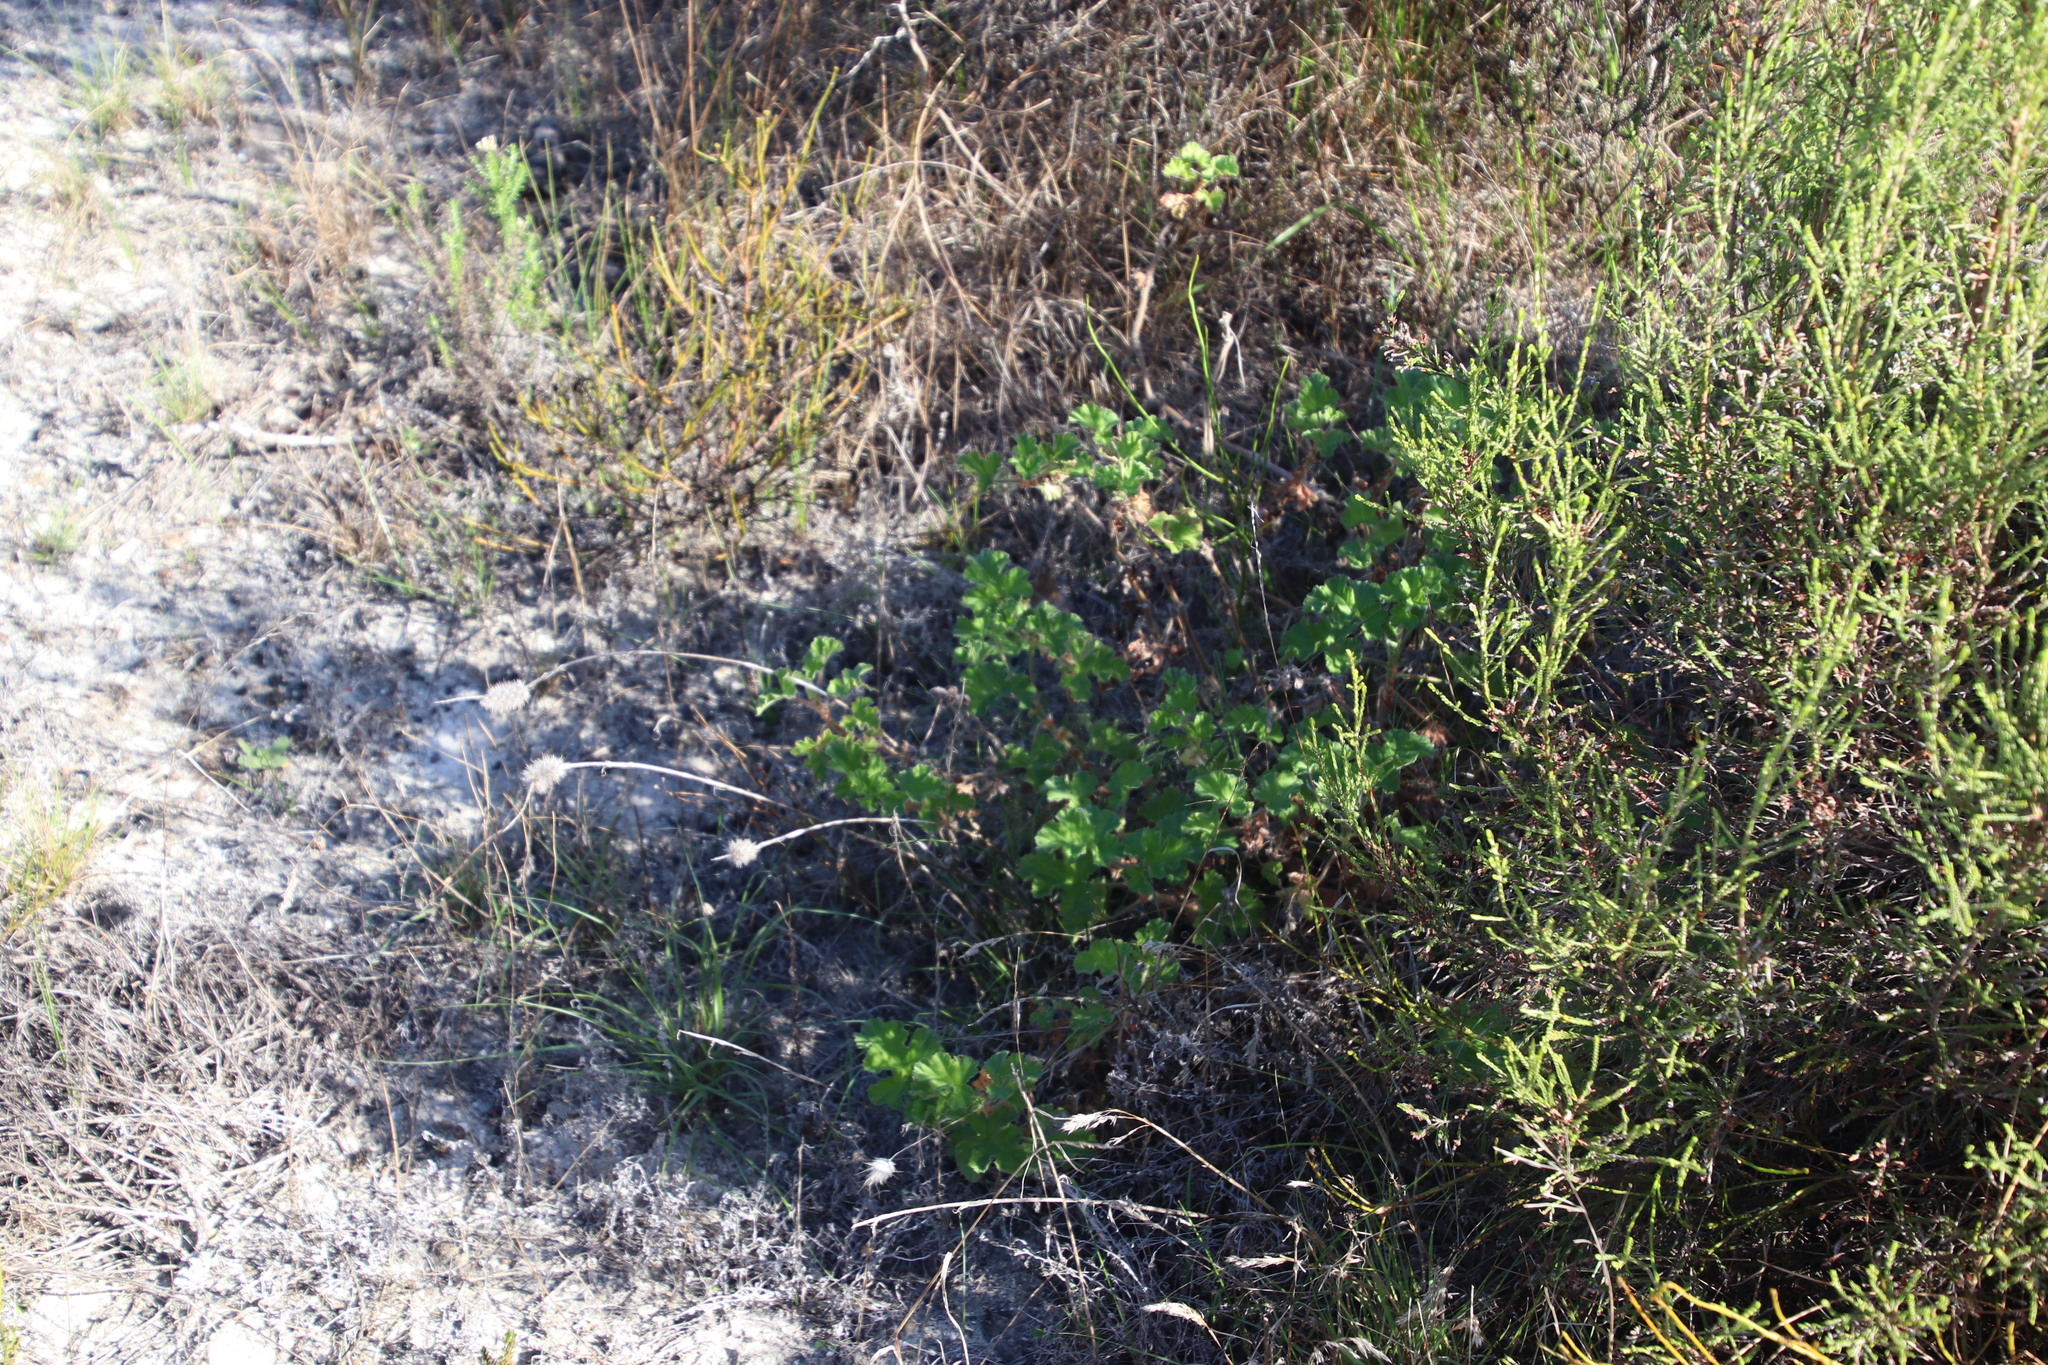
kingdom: Plantae
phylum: Tracheophyta
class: Magnoliopsida
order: Geraniales
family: Geraniaceae
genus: Pelargonium
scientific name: Pelargonium capitatum
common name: Rose scented geranium
